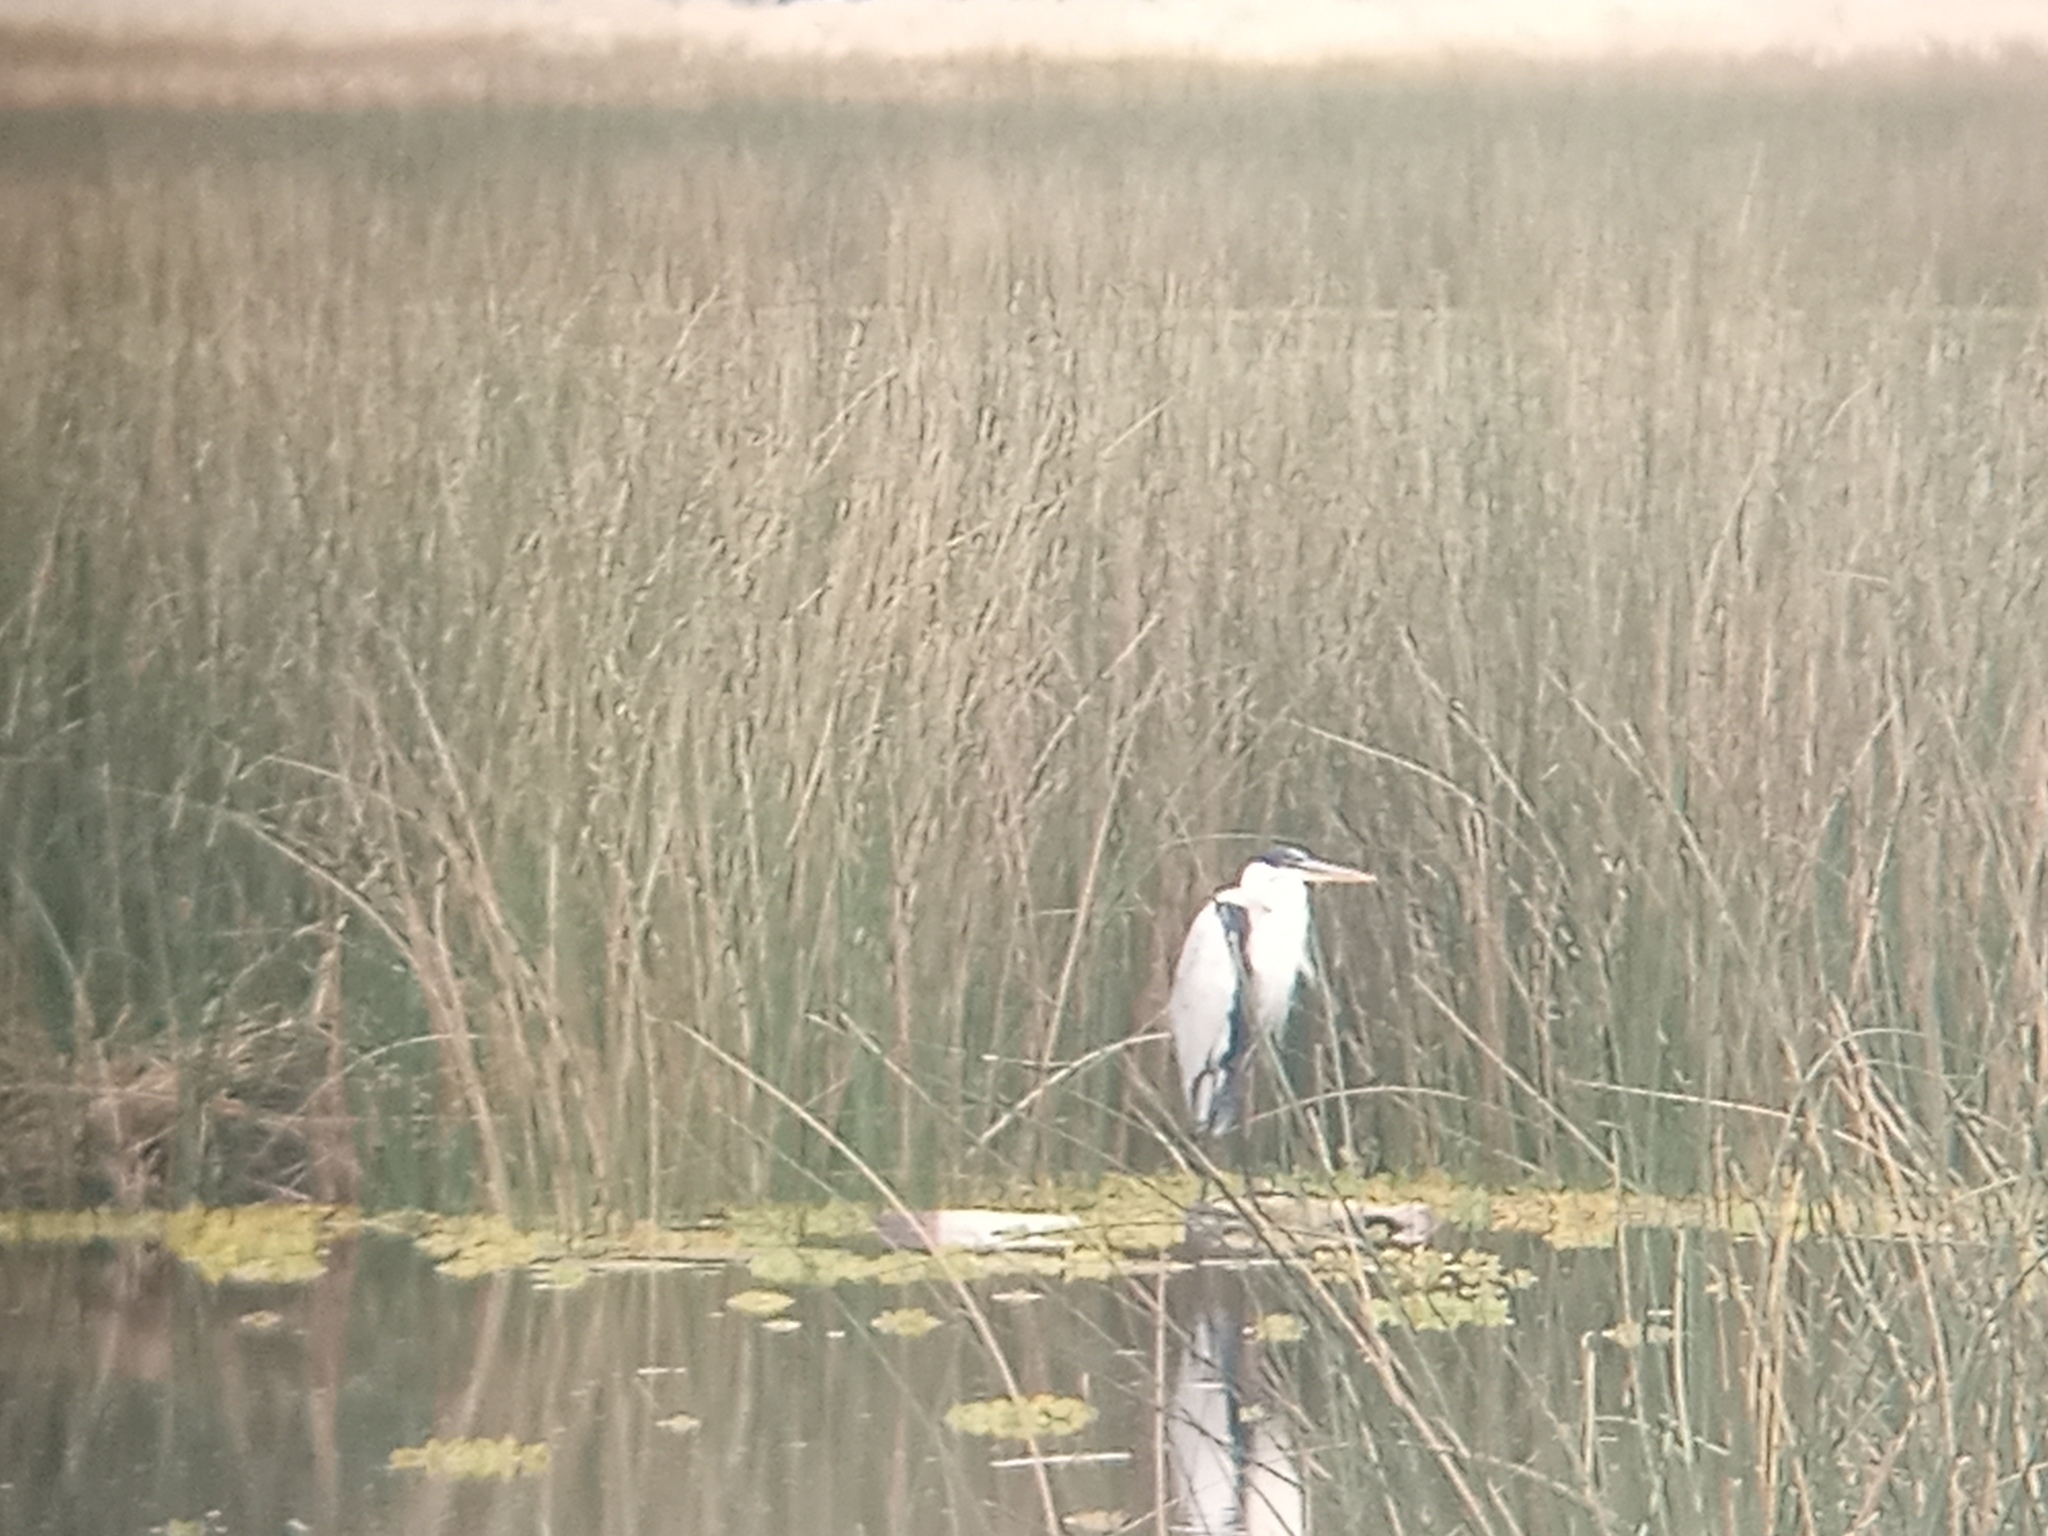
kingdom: Animalia
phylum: Chordata
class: Aves
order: Pelecaniformes
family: Ardeidae
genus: Ardea
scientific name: Ardea cocoi
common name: Cocoi heron
